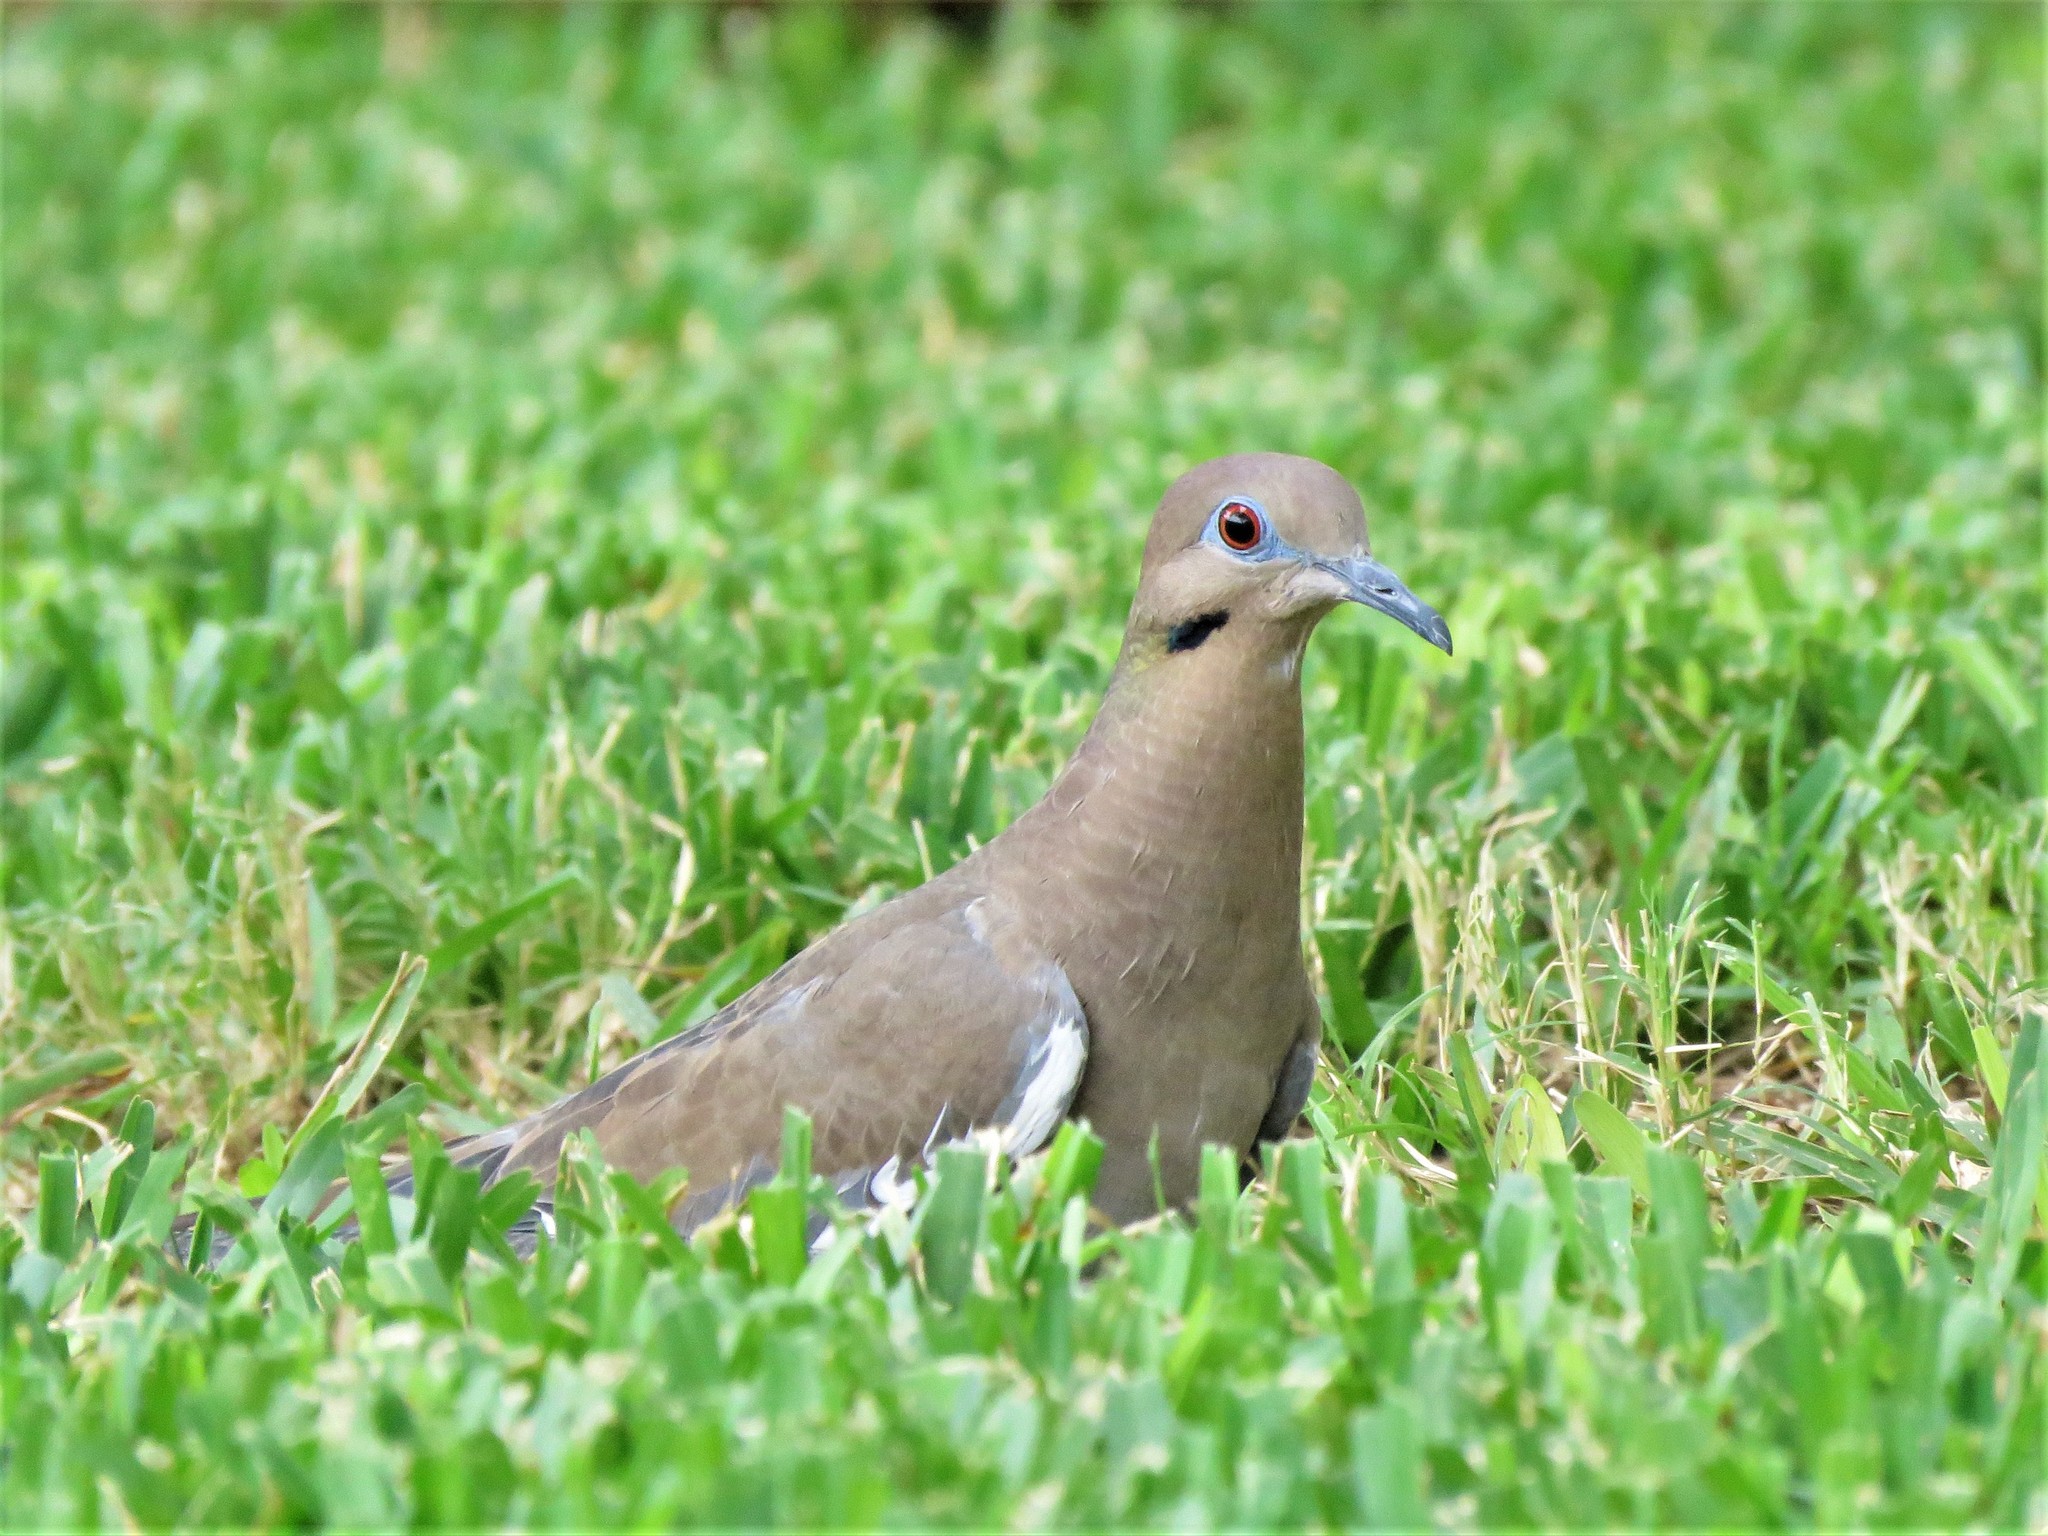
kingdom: Animalia
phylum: Chordata
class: Aves
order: Columbiformes
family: Columbidae
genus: Zenaida
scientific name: Zenaida asiatica
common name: White-winged dove
